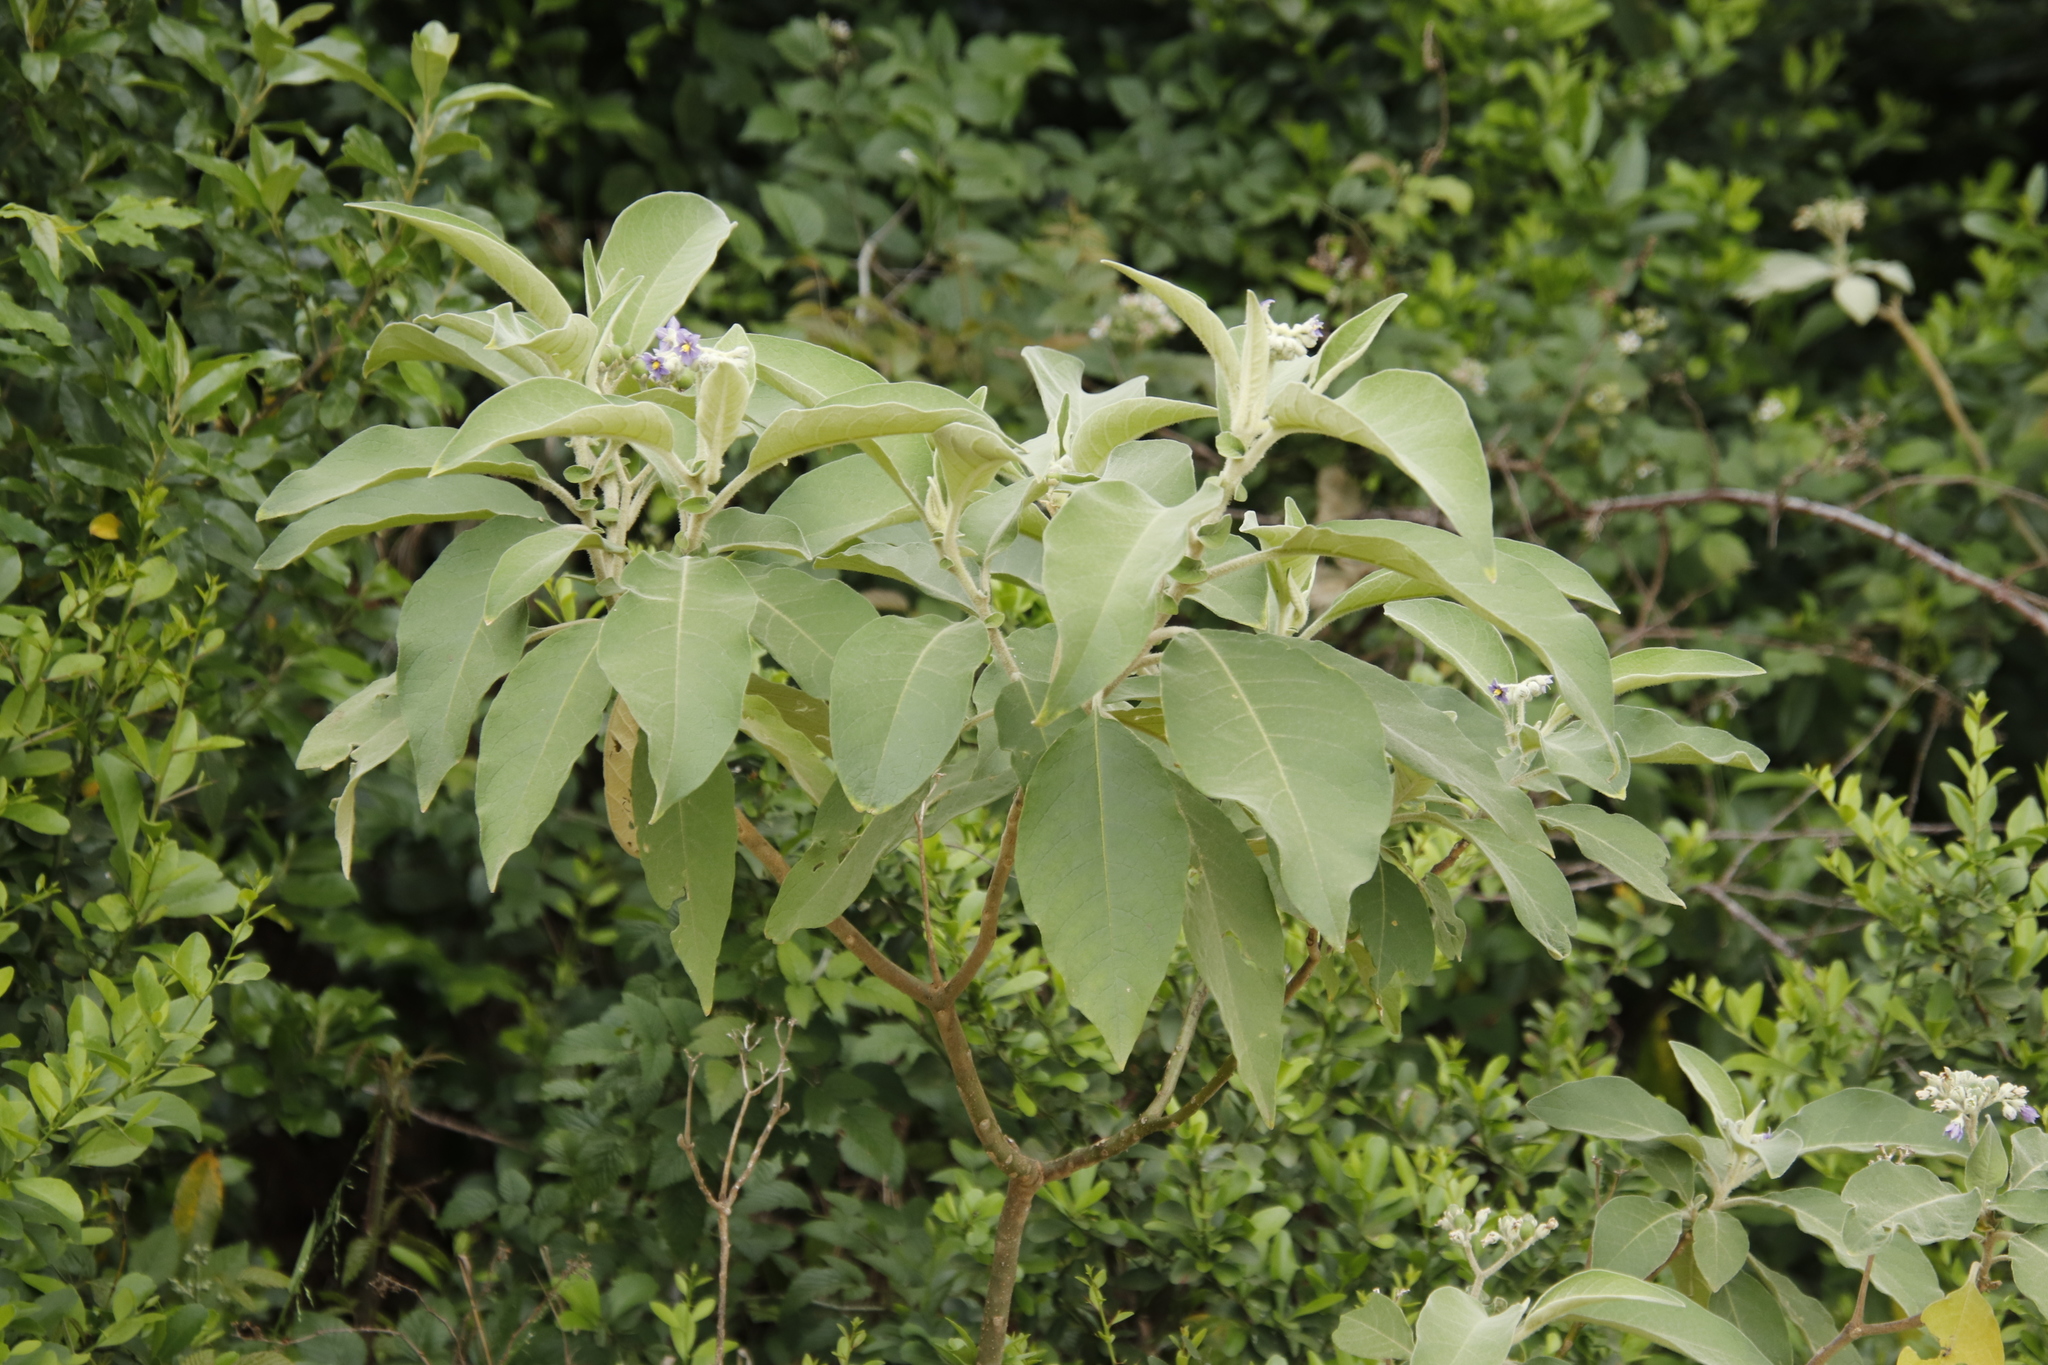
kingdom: Plantae
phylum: Tracheophyta
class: Magnoliopsida
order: Solanales
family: Solanaceae
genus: Solanum
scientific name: Solanum mauritianum
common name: Earleaf nightshade
